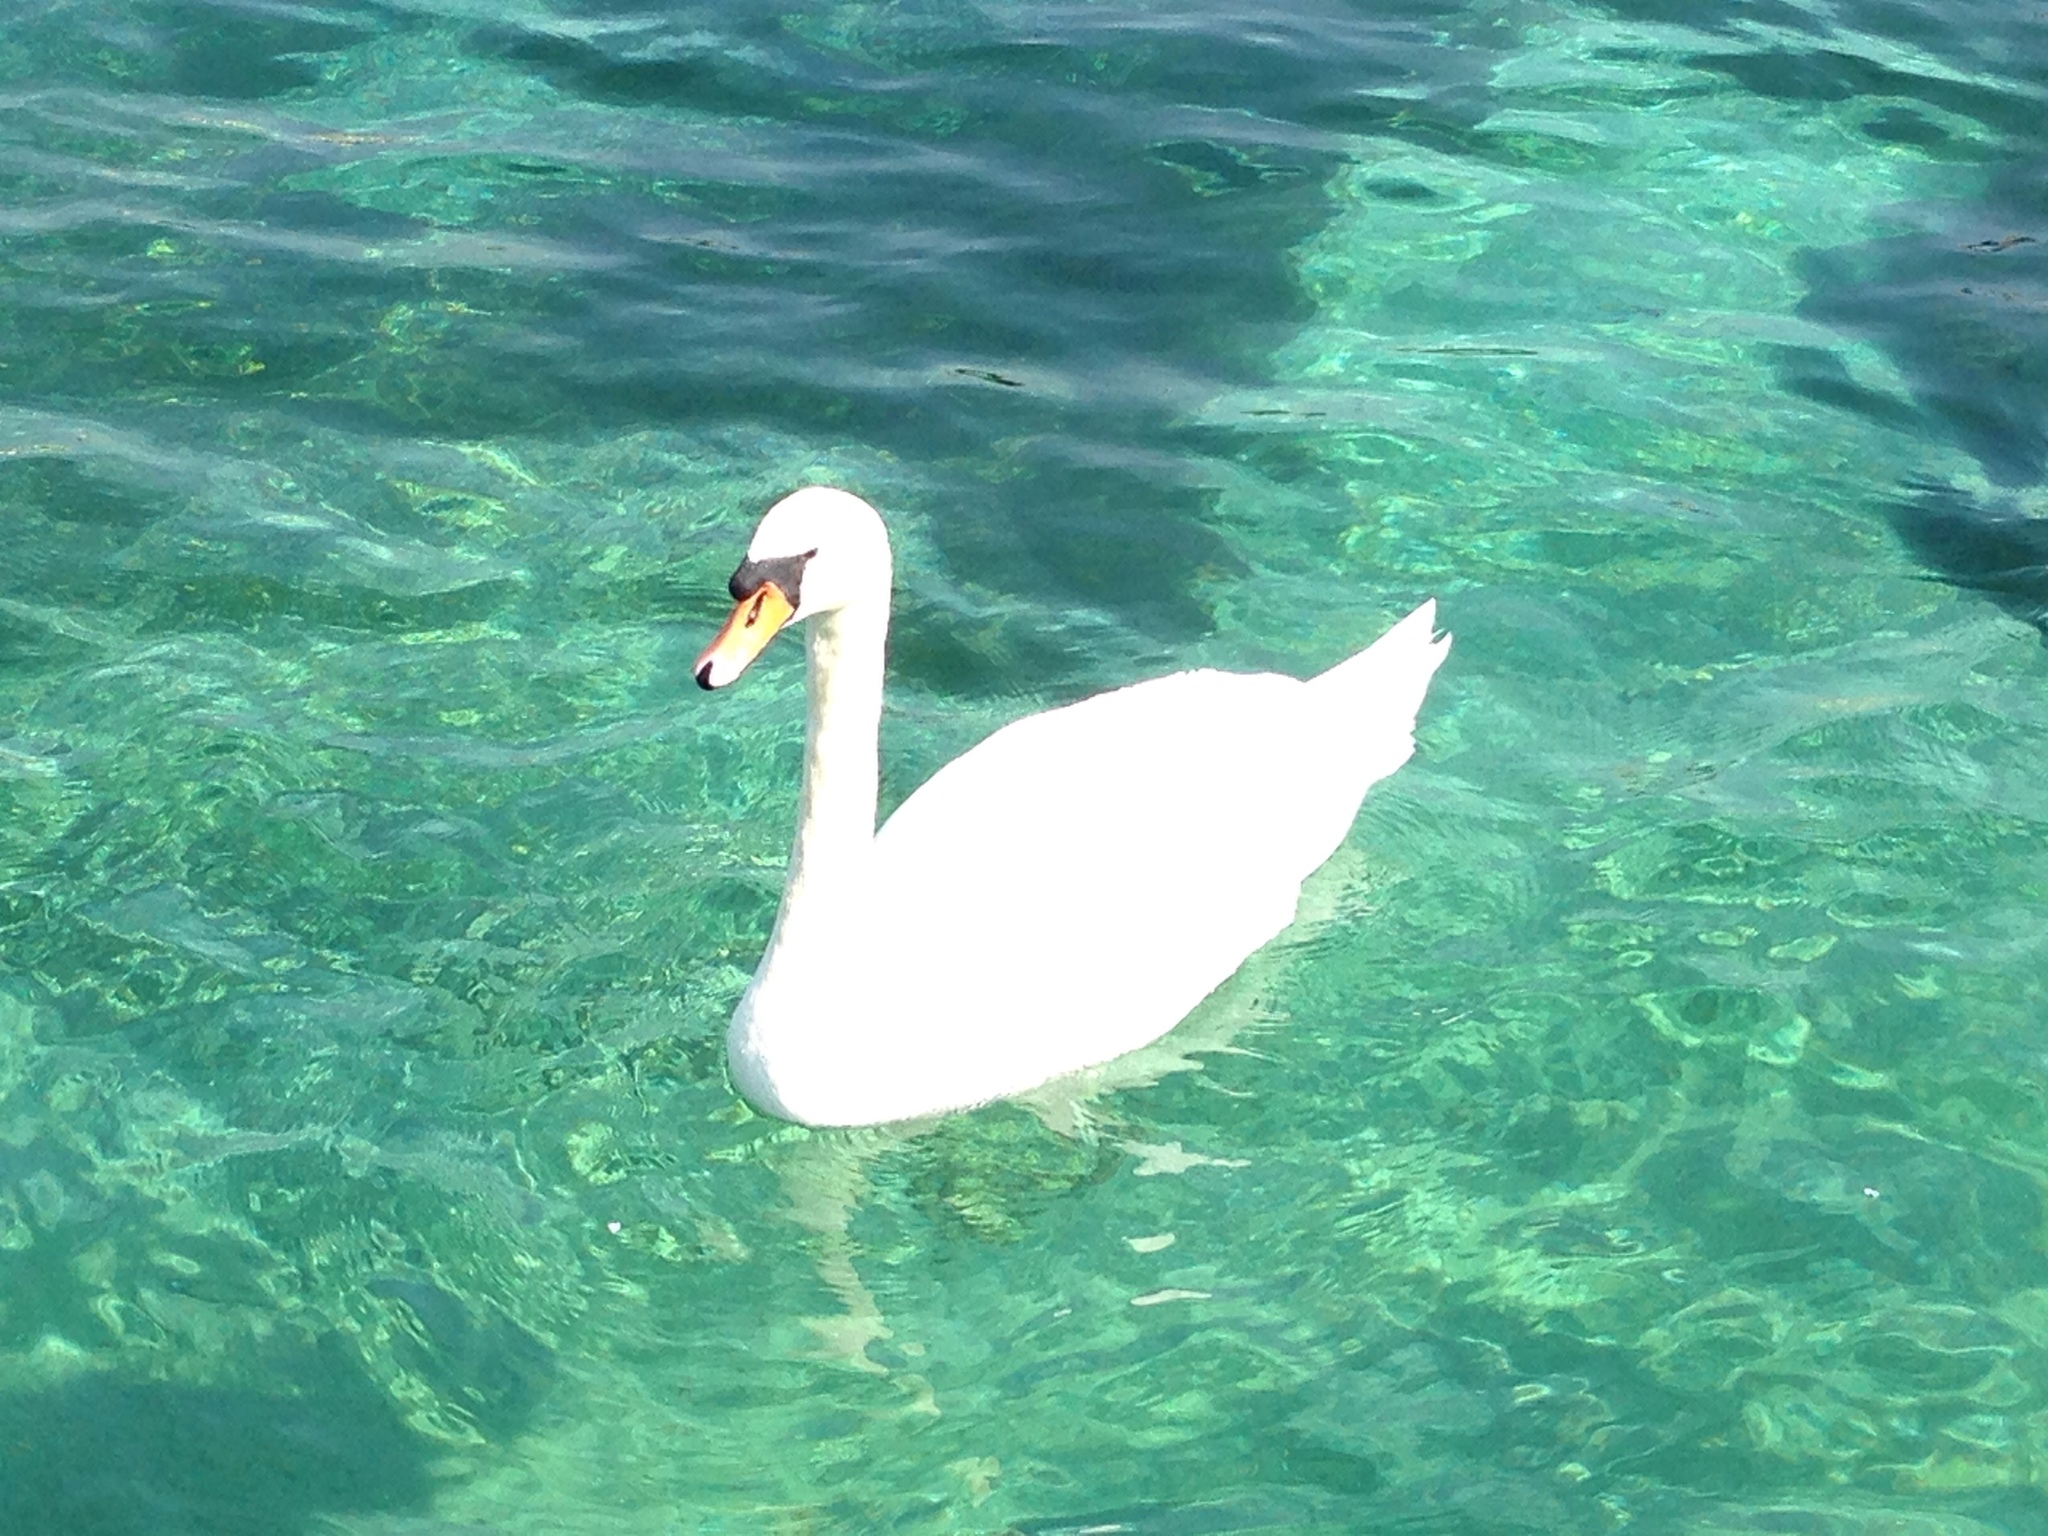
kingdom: Animalia
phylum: Chordata
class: Aves
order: Anseriformes
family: Anatidae
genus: Cygnus
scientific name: Cygnus olor
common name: Mute swan
